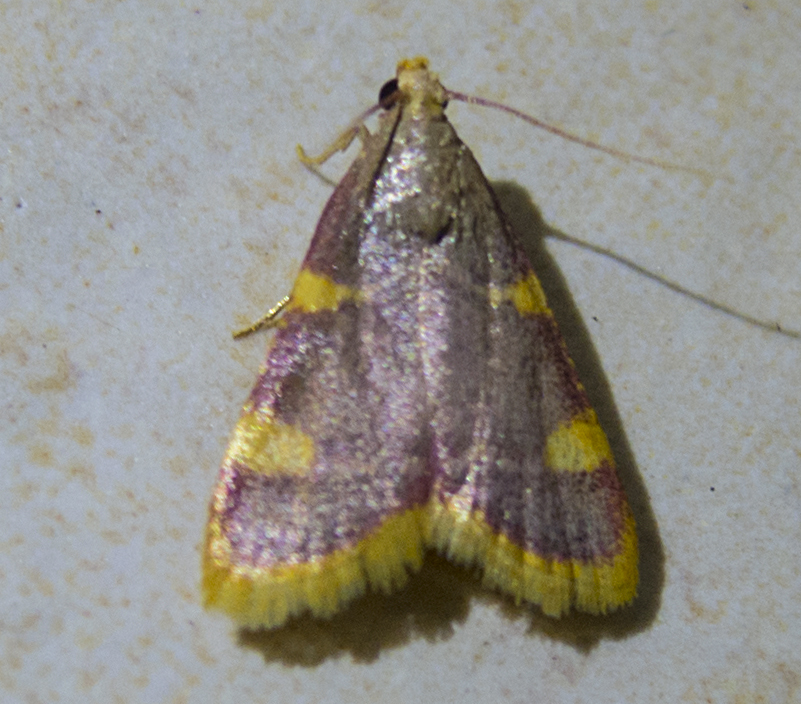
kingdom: Animalia
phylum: Arthropoda
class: Insecta
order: Lepidoptera
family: Pyralidae
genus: Hypsopygia
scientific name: Hypsopygia costalis
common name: Gold triangle
